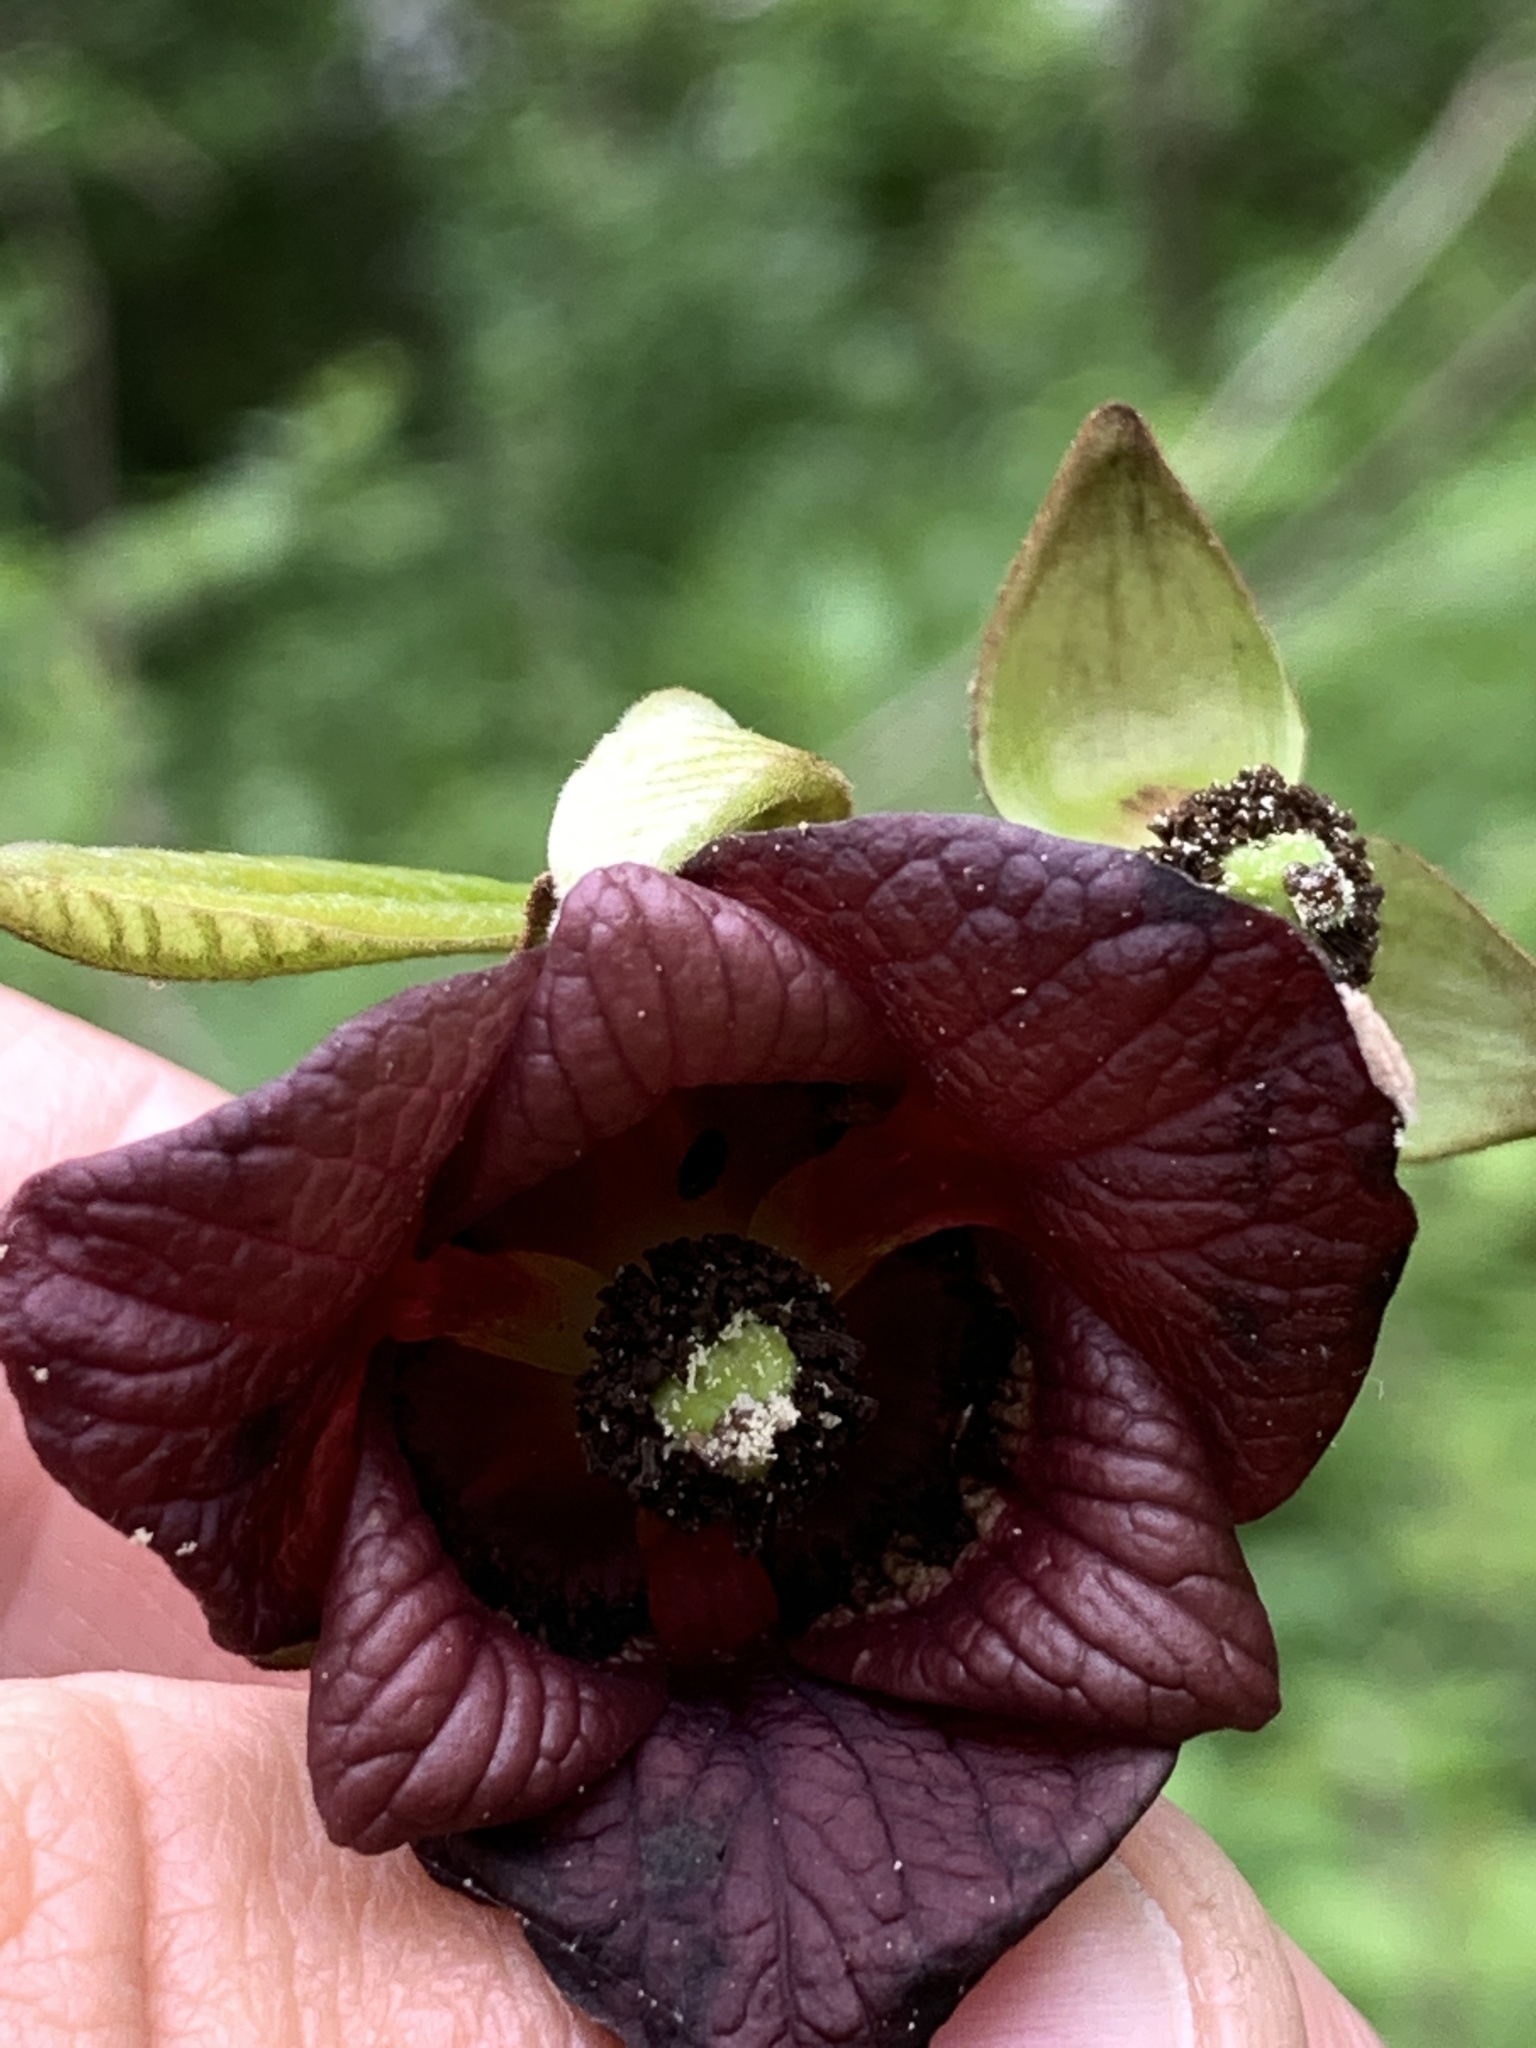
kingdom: Plantae
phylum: Tracheophyta
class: Magnoliopsida
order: Magnoliales
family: Annonaceae
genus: Asimina
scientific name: Asimina triloba
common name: Dog-banana
